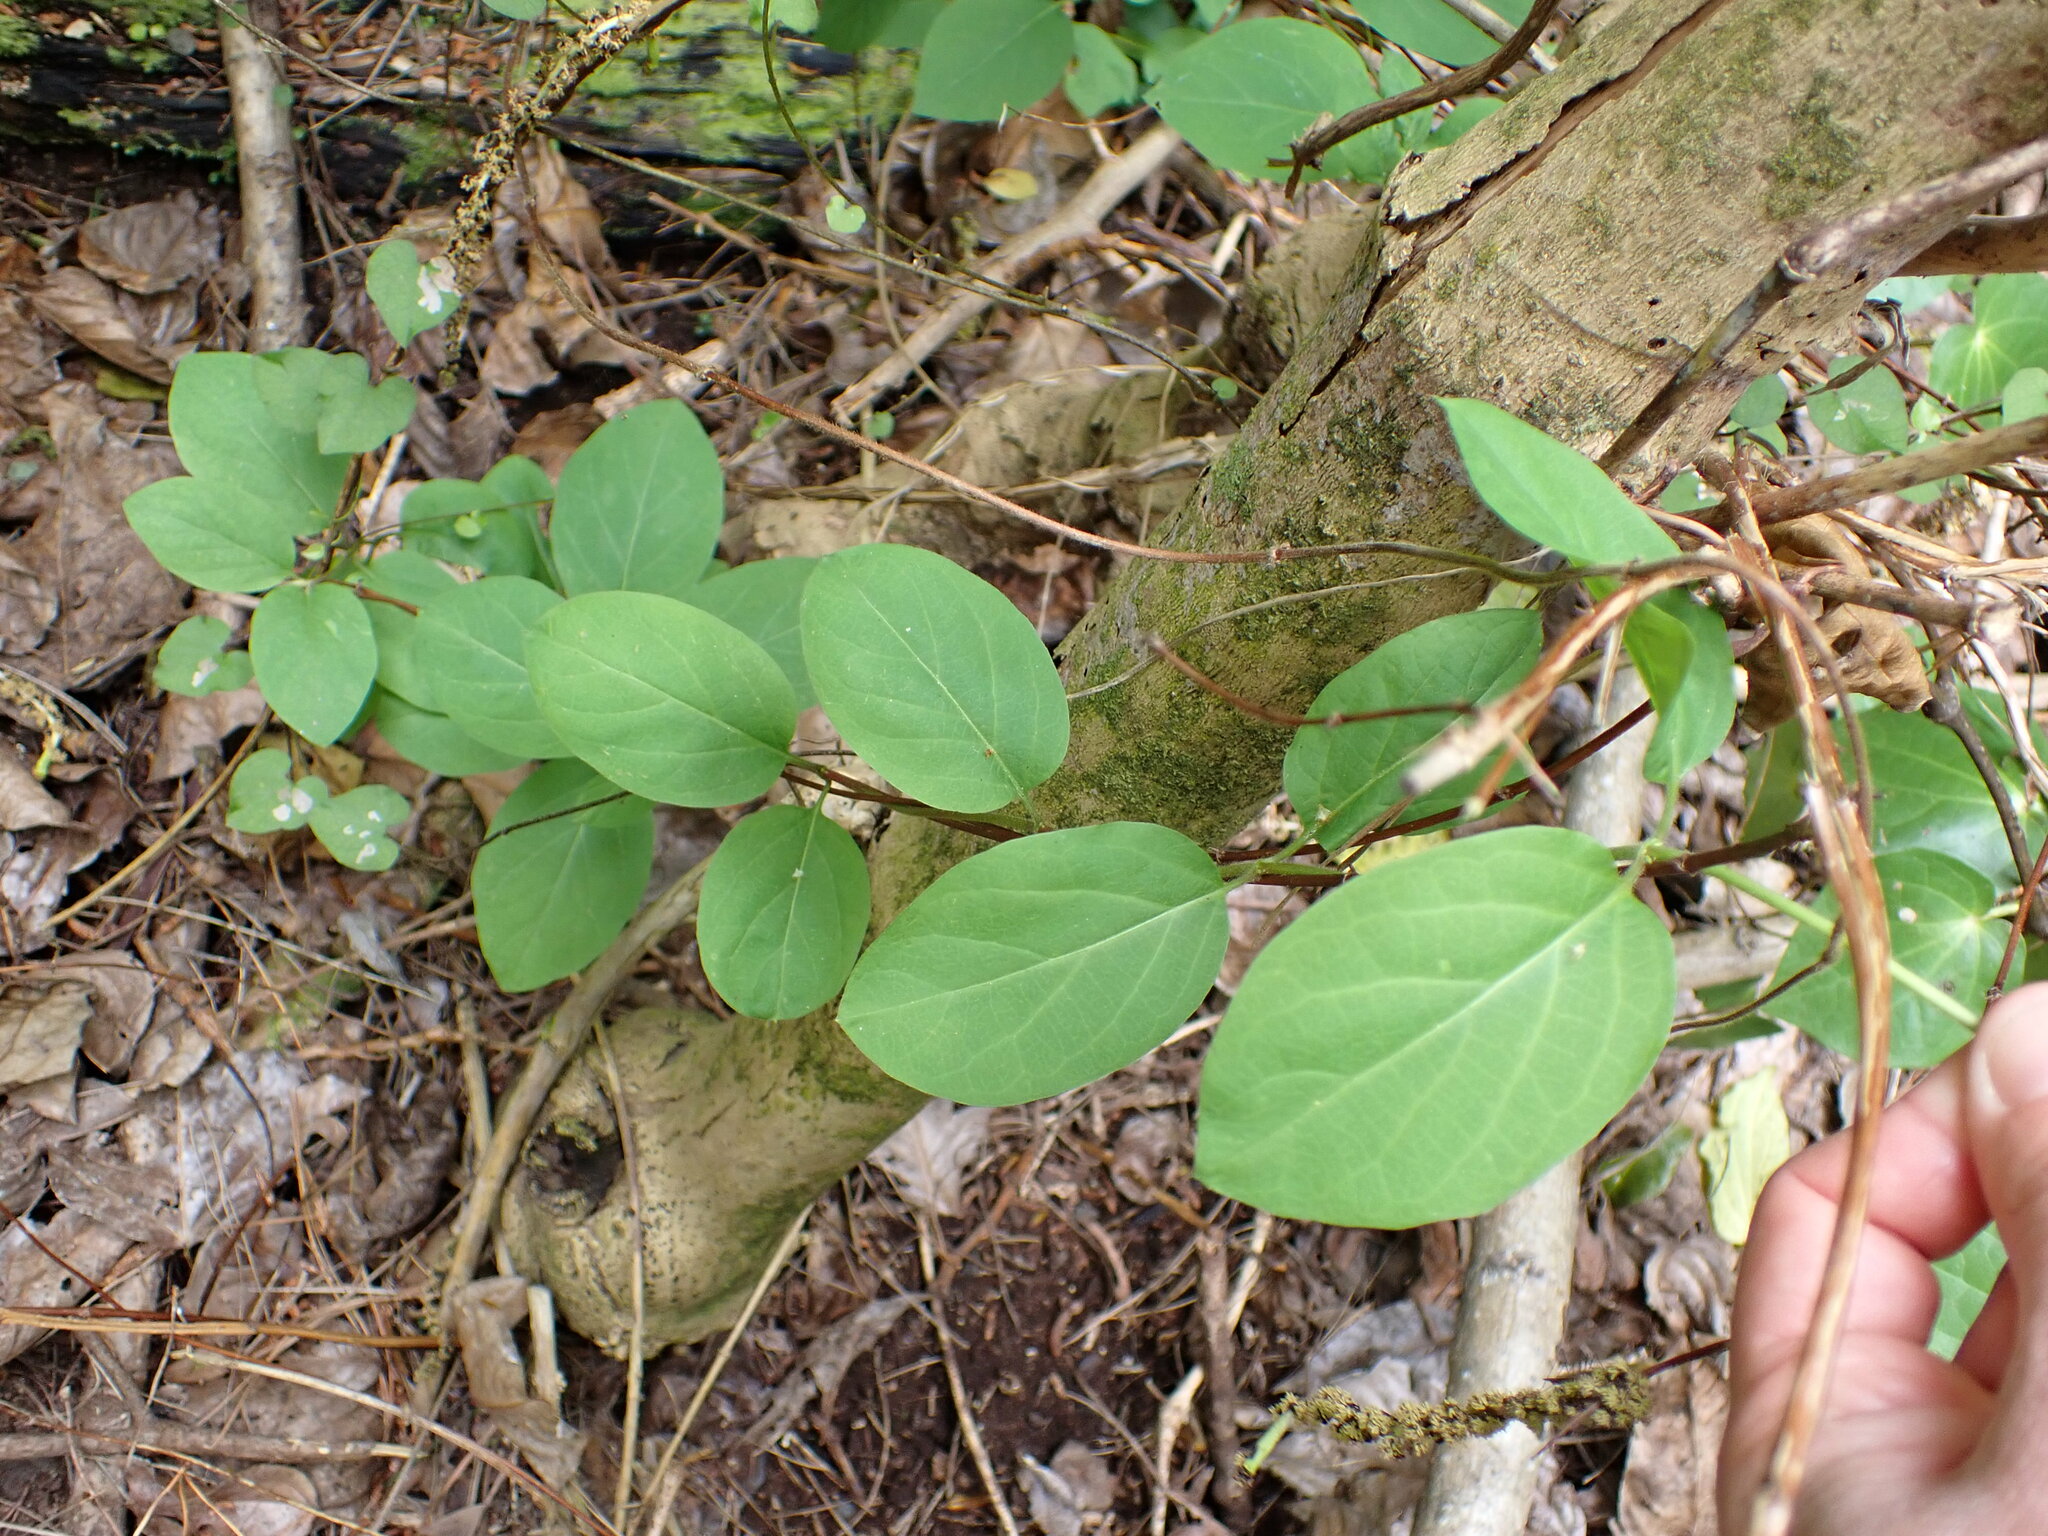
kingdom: Plantae
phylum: Tracheophyta
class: Magnoliopsida
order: Dipsacales
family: Caprifoliaceae
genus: Lonicera
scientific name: Lonicera japonica
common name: Japanese honeysuckle
